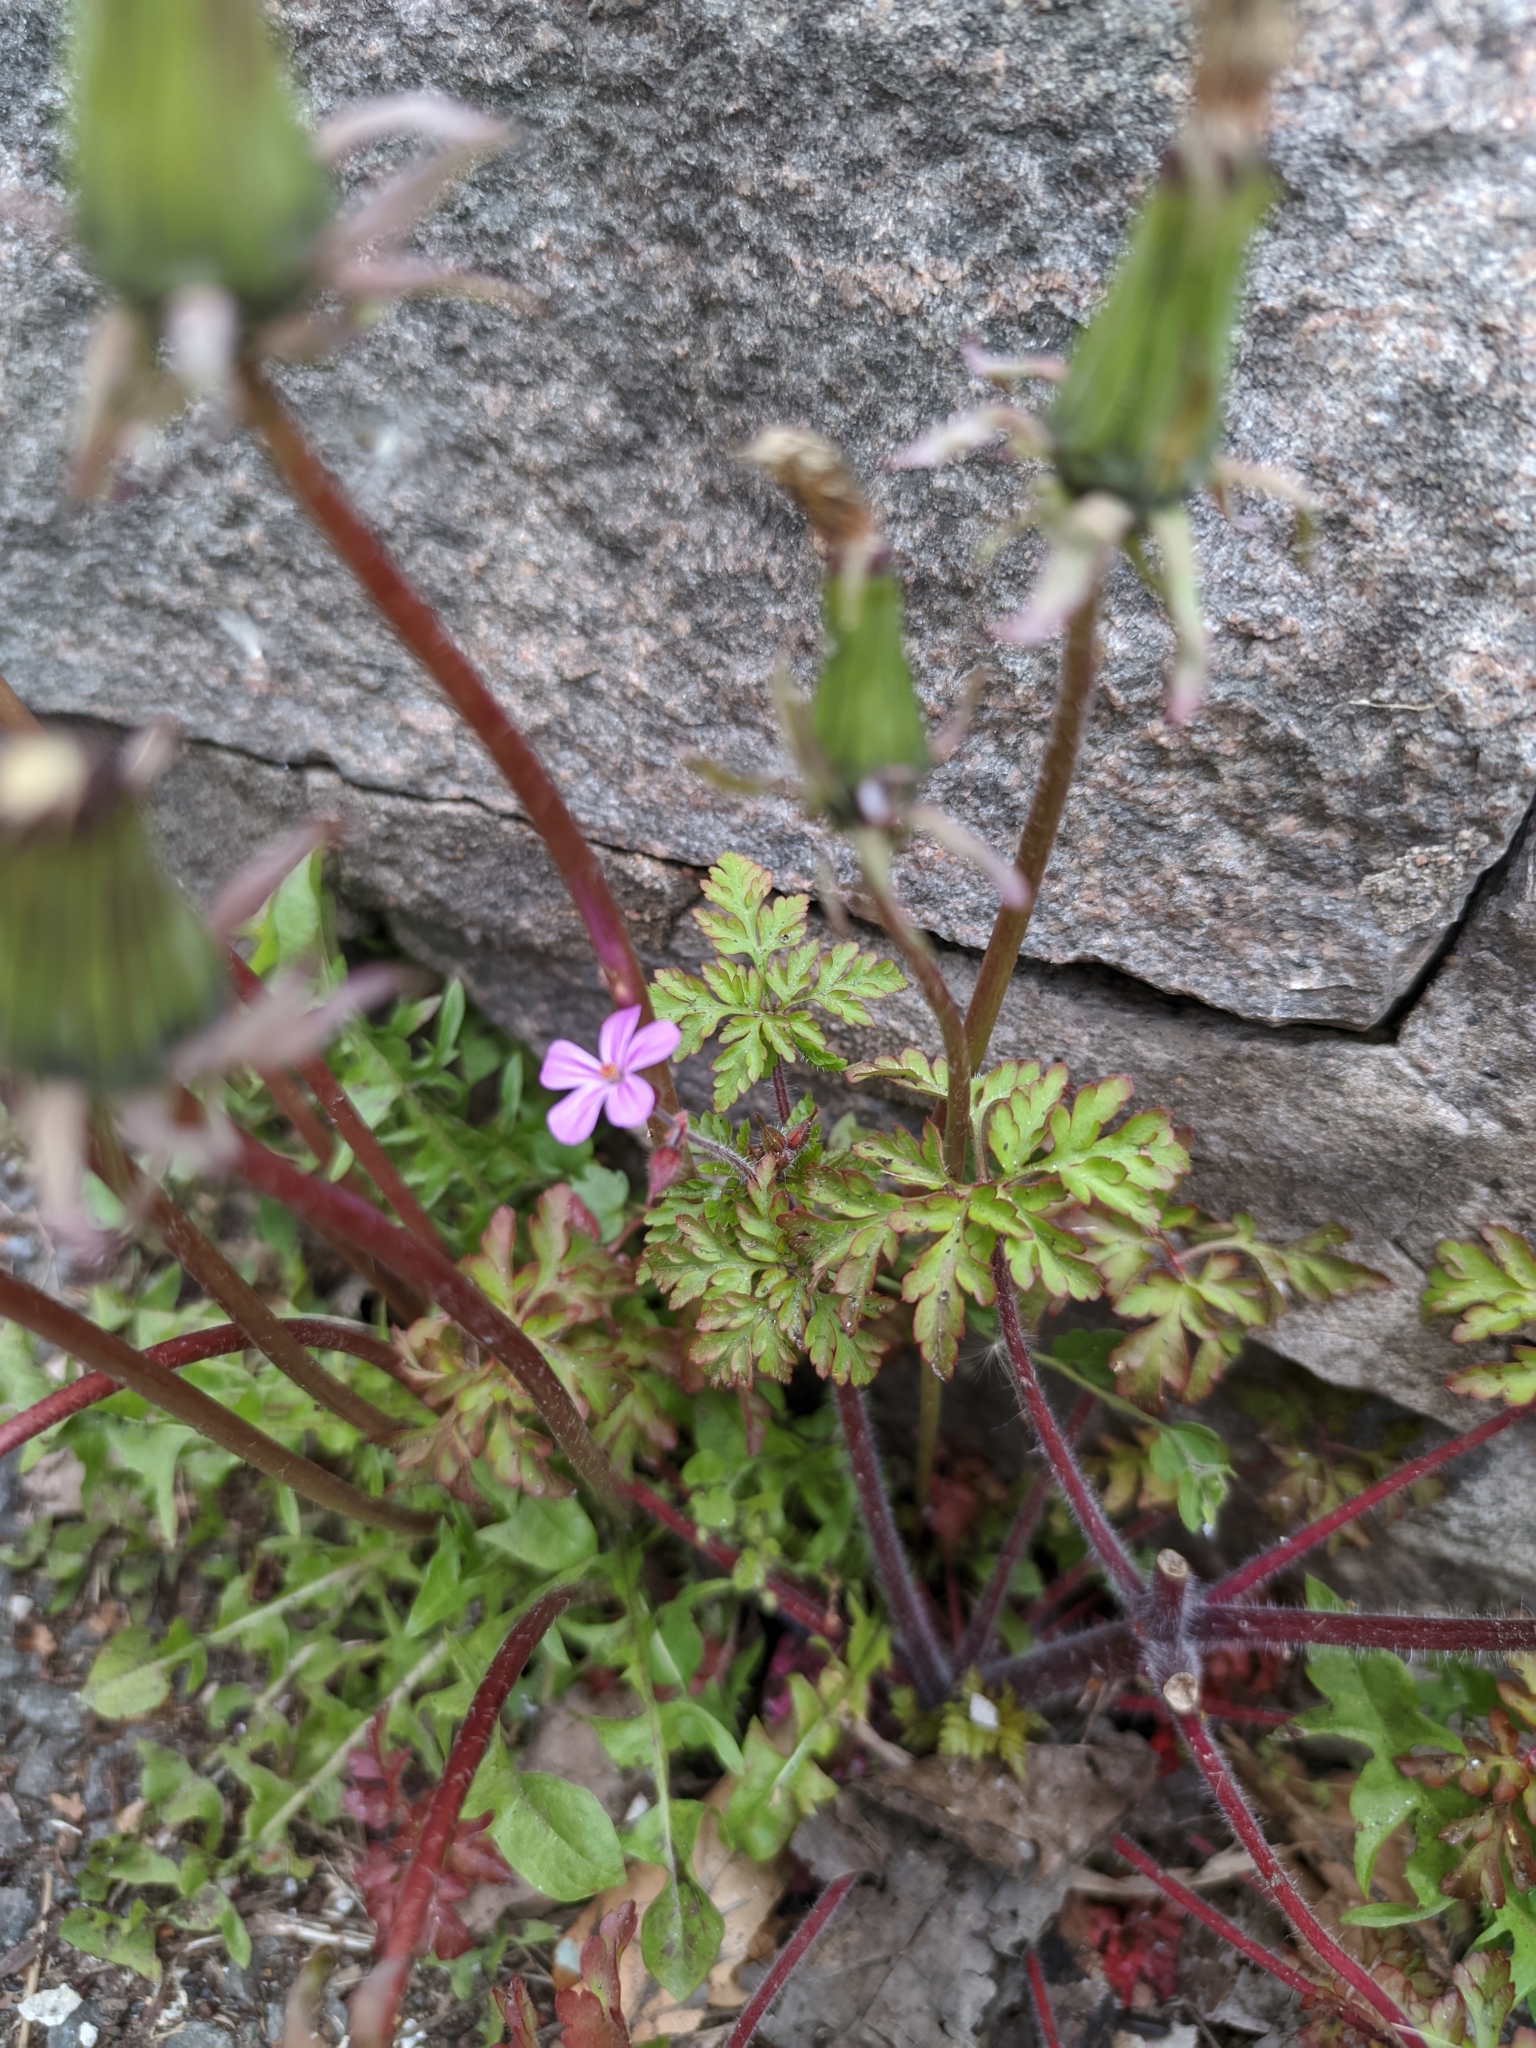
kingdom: Plantae
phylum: Tracheophyta
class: Magnoliopsida
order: Geraniales
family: Geraniaceae
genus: Geranium
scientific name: Geranium robertianum
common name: Herb-robert
